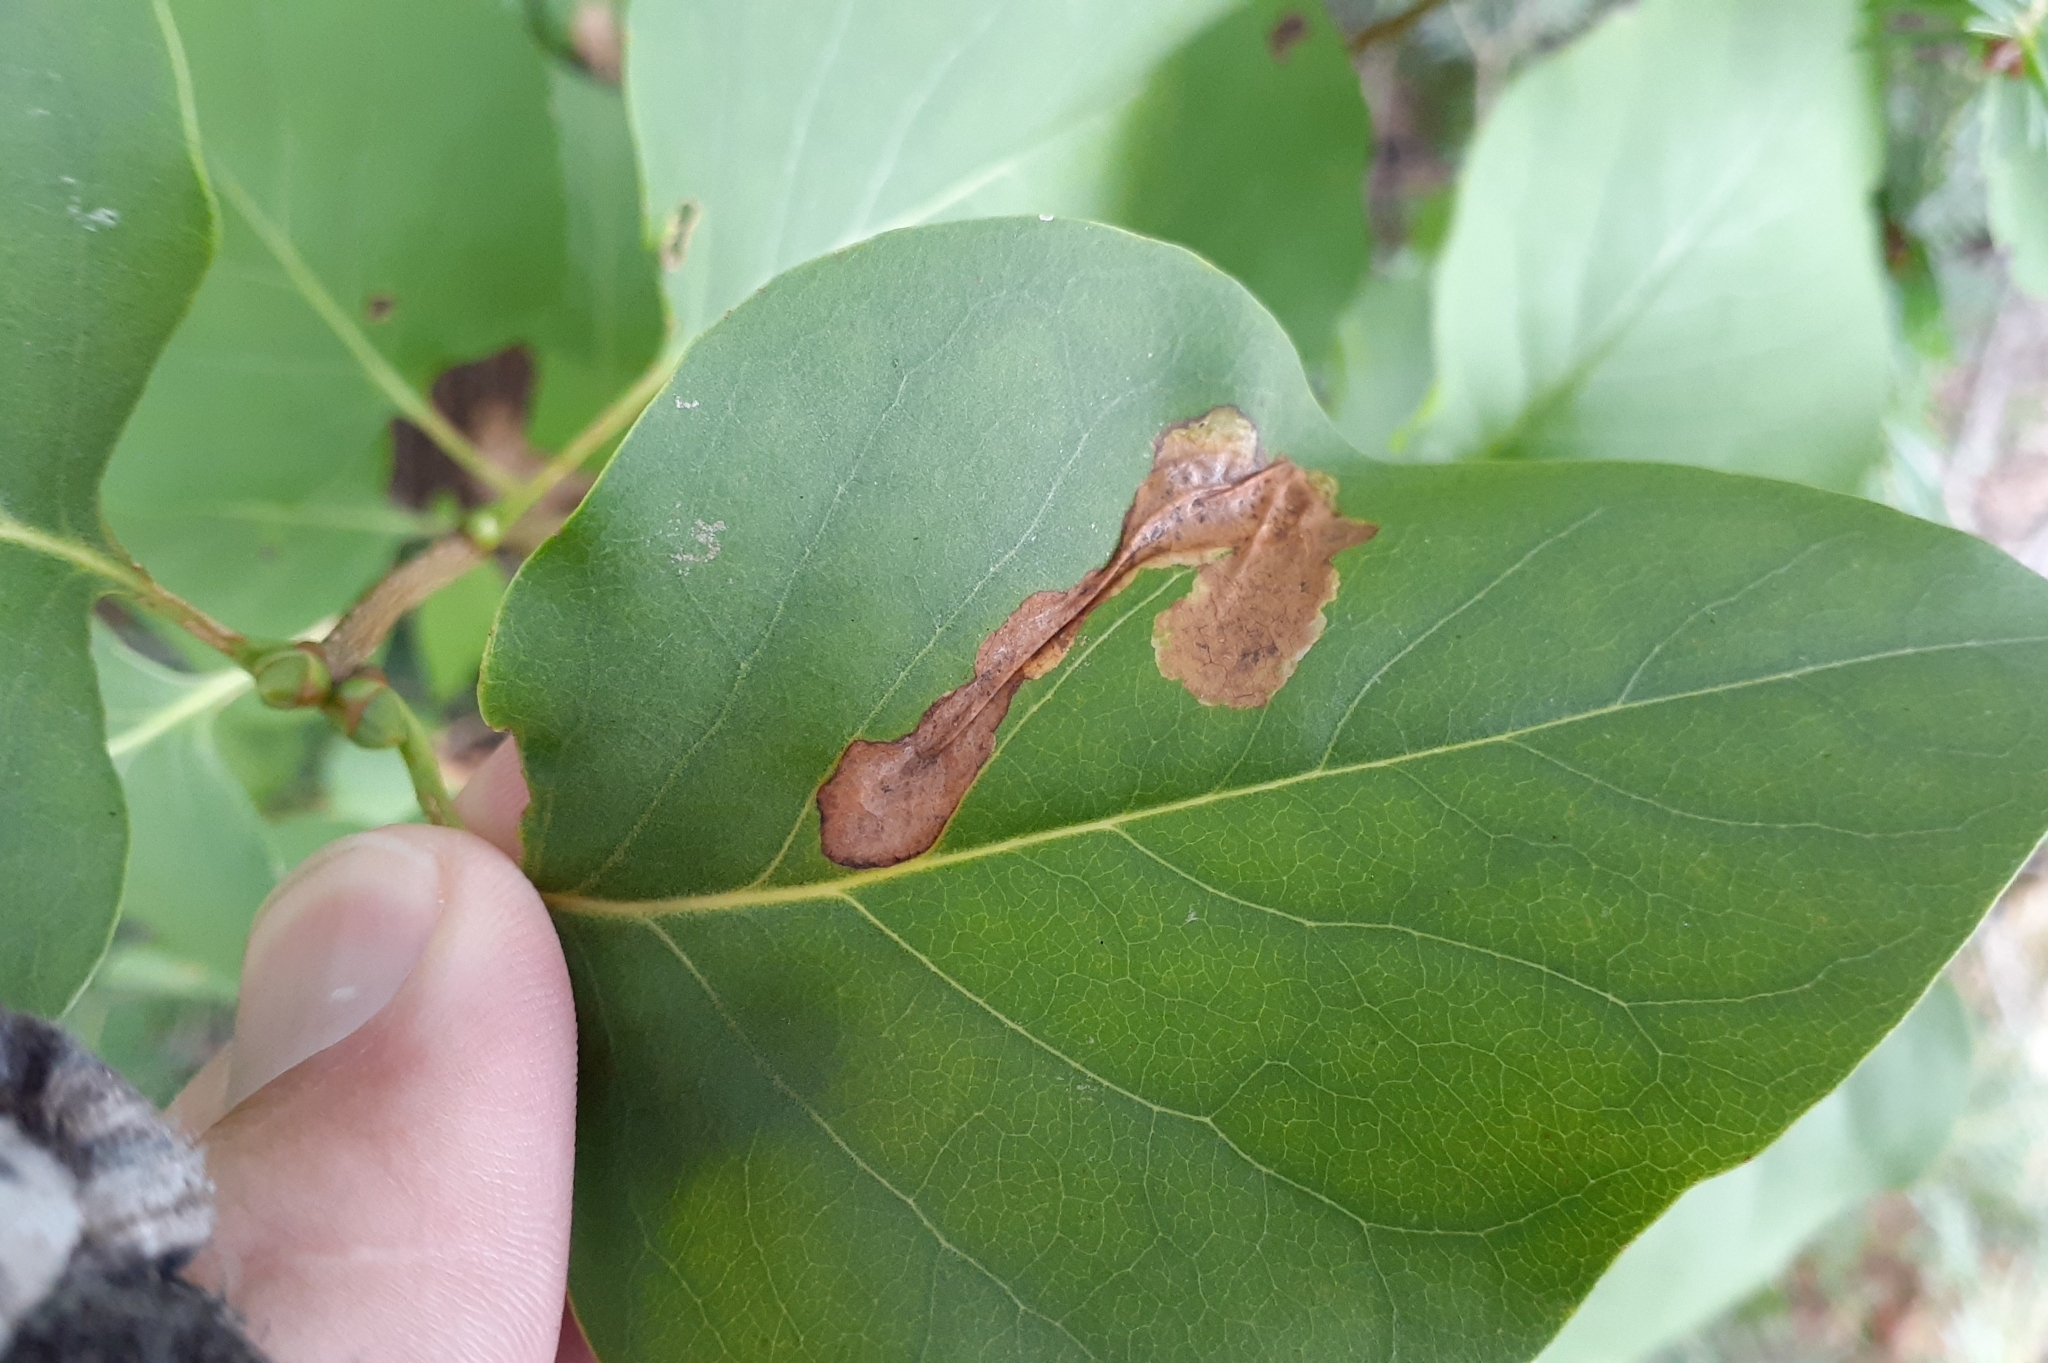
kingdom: Animalia
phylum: Arthropoda
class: Insecta
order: Lepidoptera
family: Gracillariidae
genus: Gracillaria
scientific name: Gracillaria syringella
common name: Common slender
